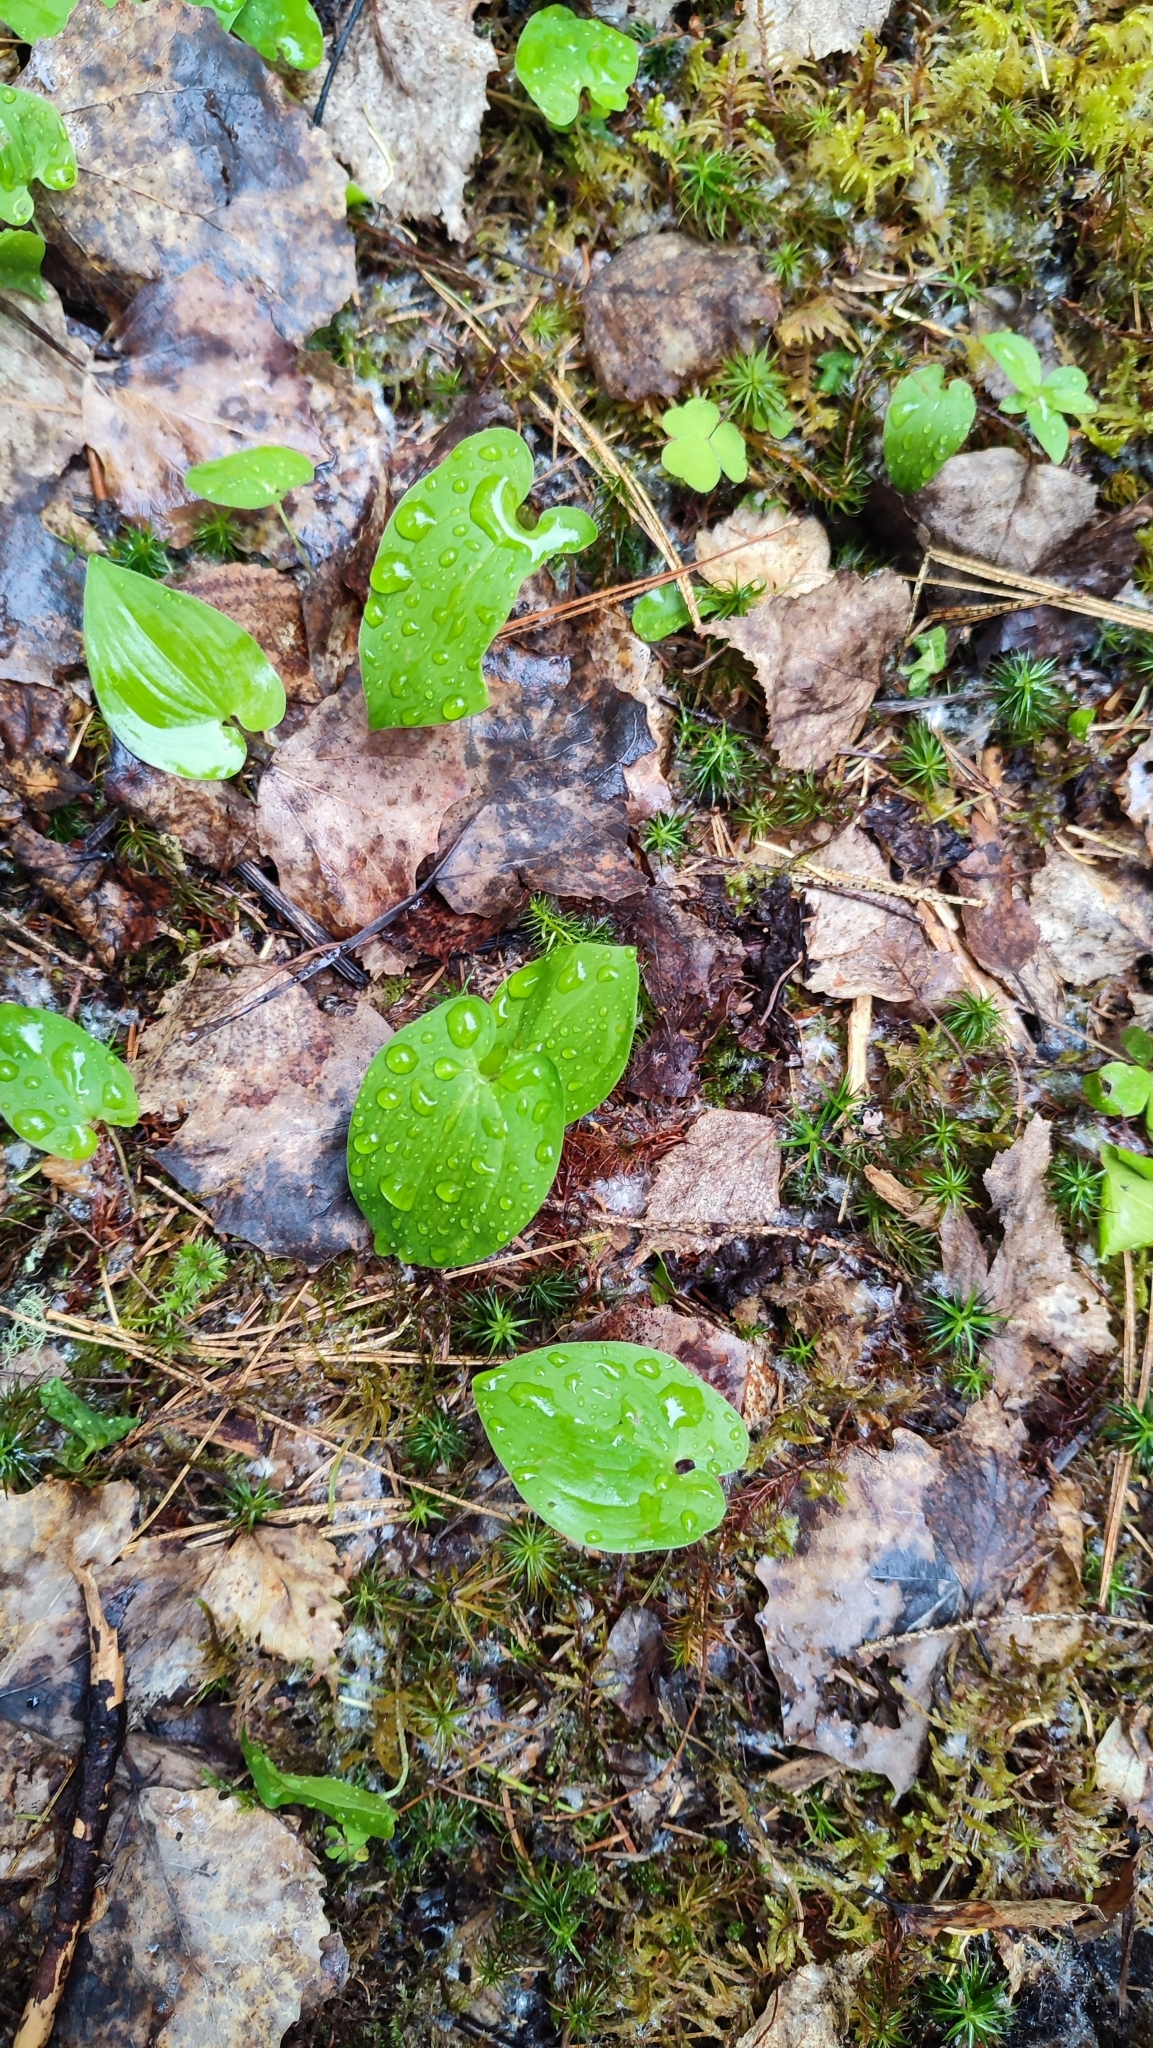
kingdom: Plantae
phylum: Tracheophyta
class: Liliopsida
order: Asparagales
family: Asparagaceae
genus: Maianthemum
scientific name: Maianthemum bifolium
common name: May lily
